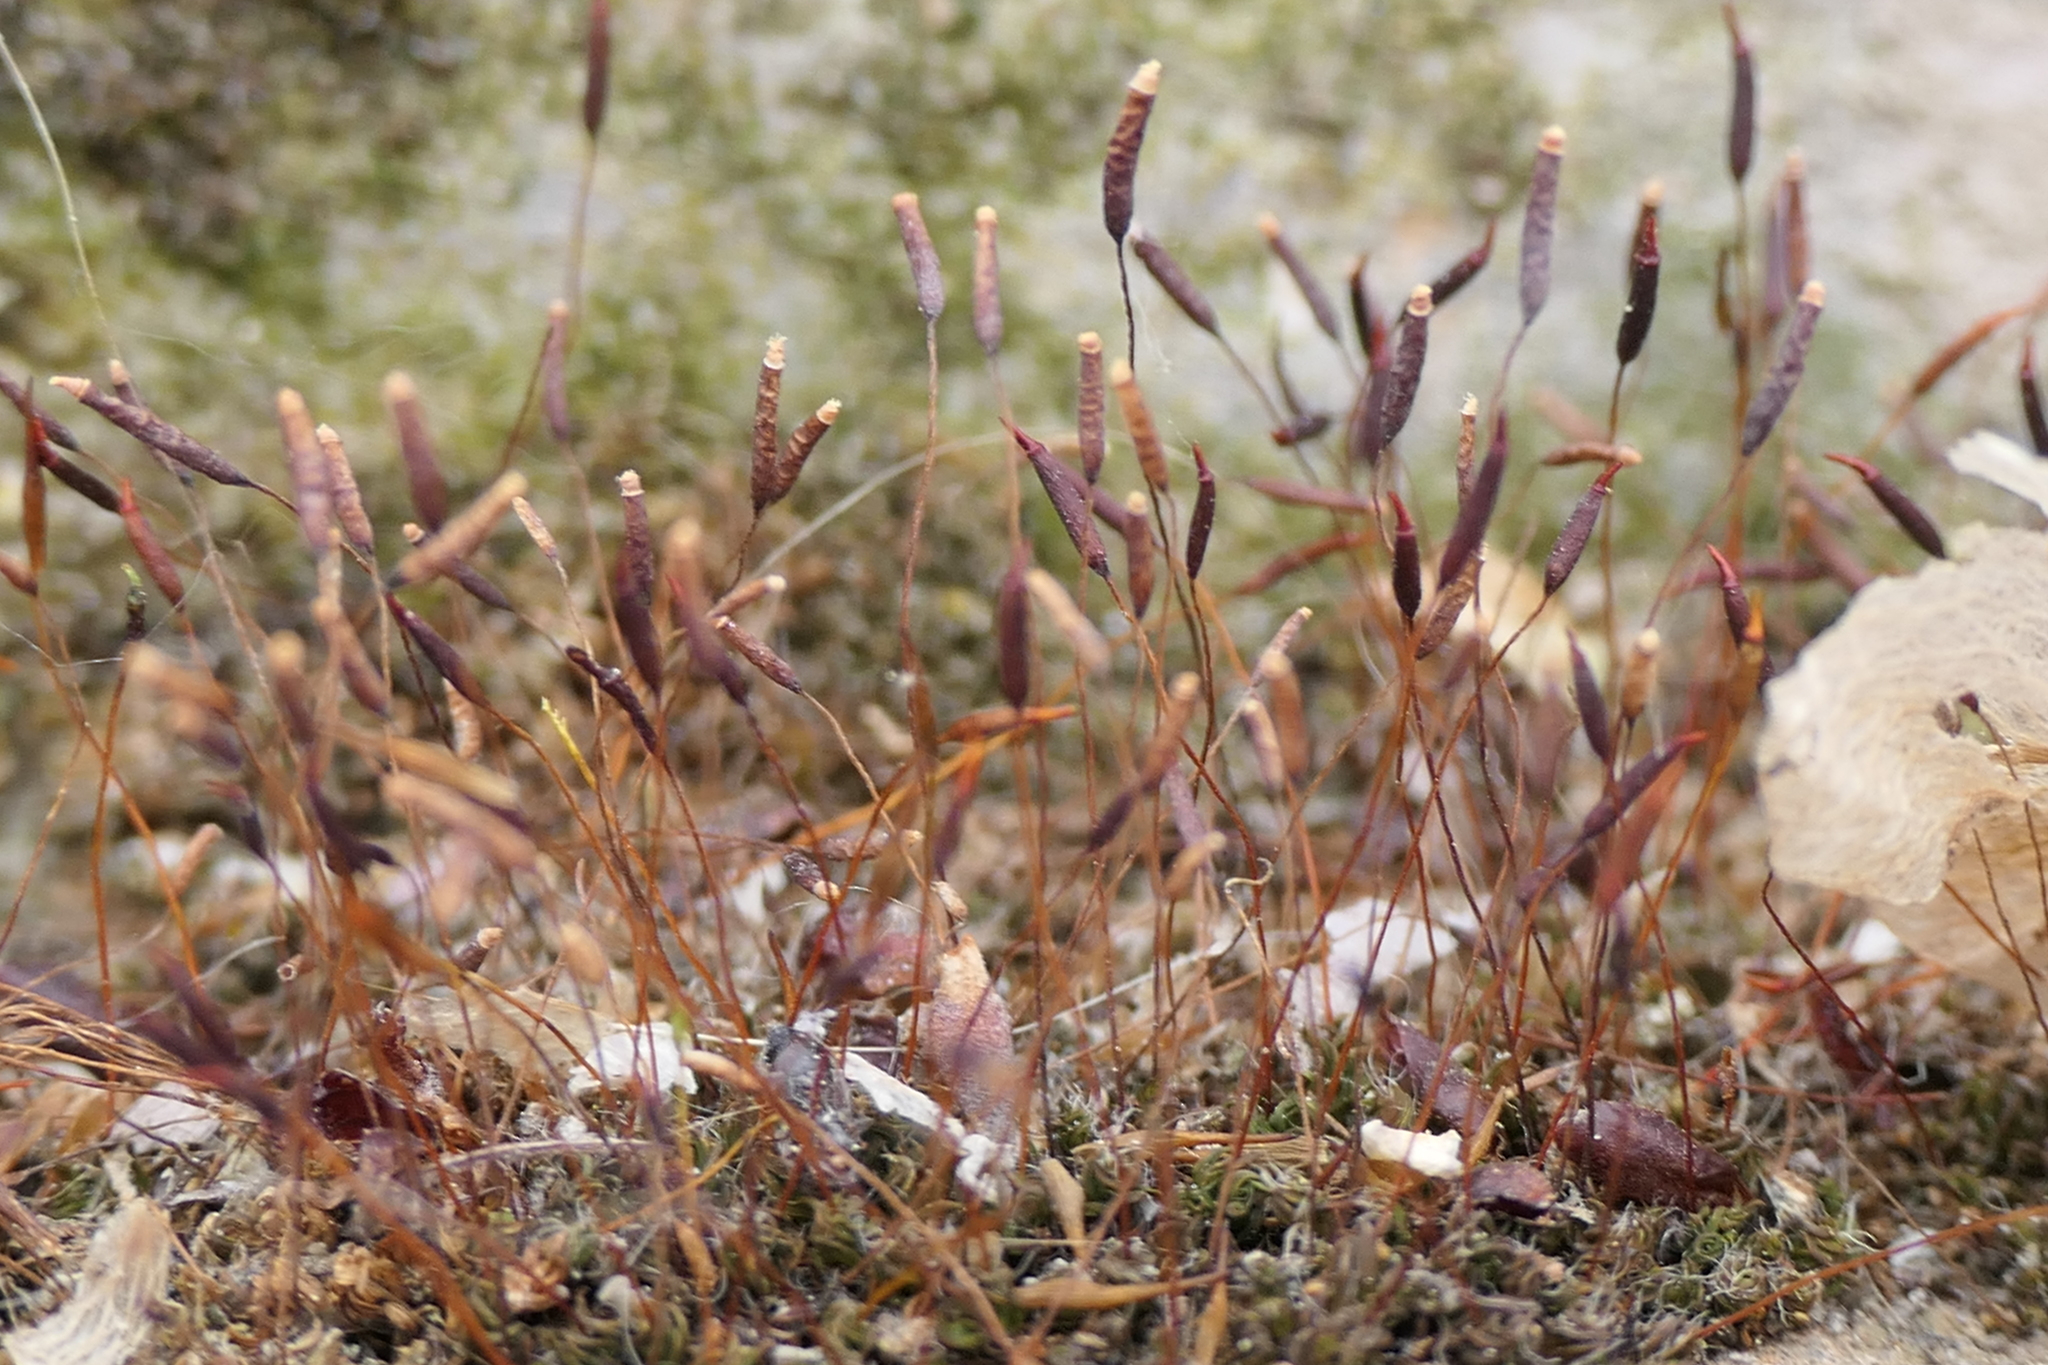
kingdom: Plantae
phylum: Bryophyta
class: Bryopsida
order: Pottiales
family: Pottiaceae
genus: Tortula
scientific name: Tortula muralis
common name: Wall screw-moss
